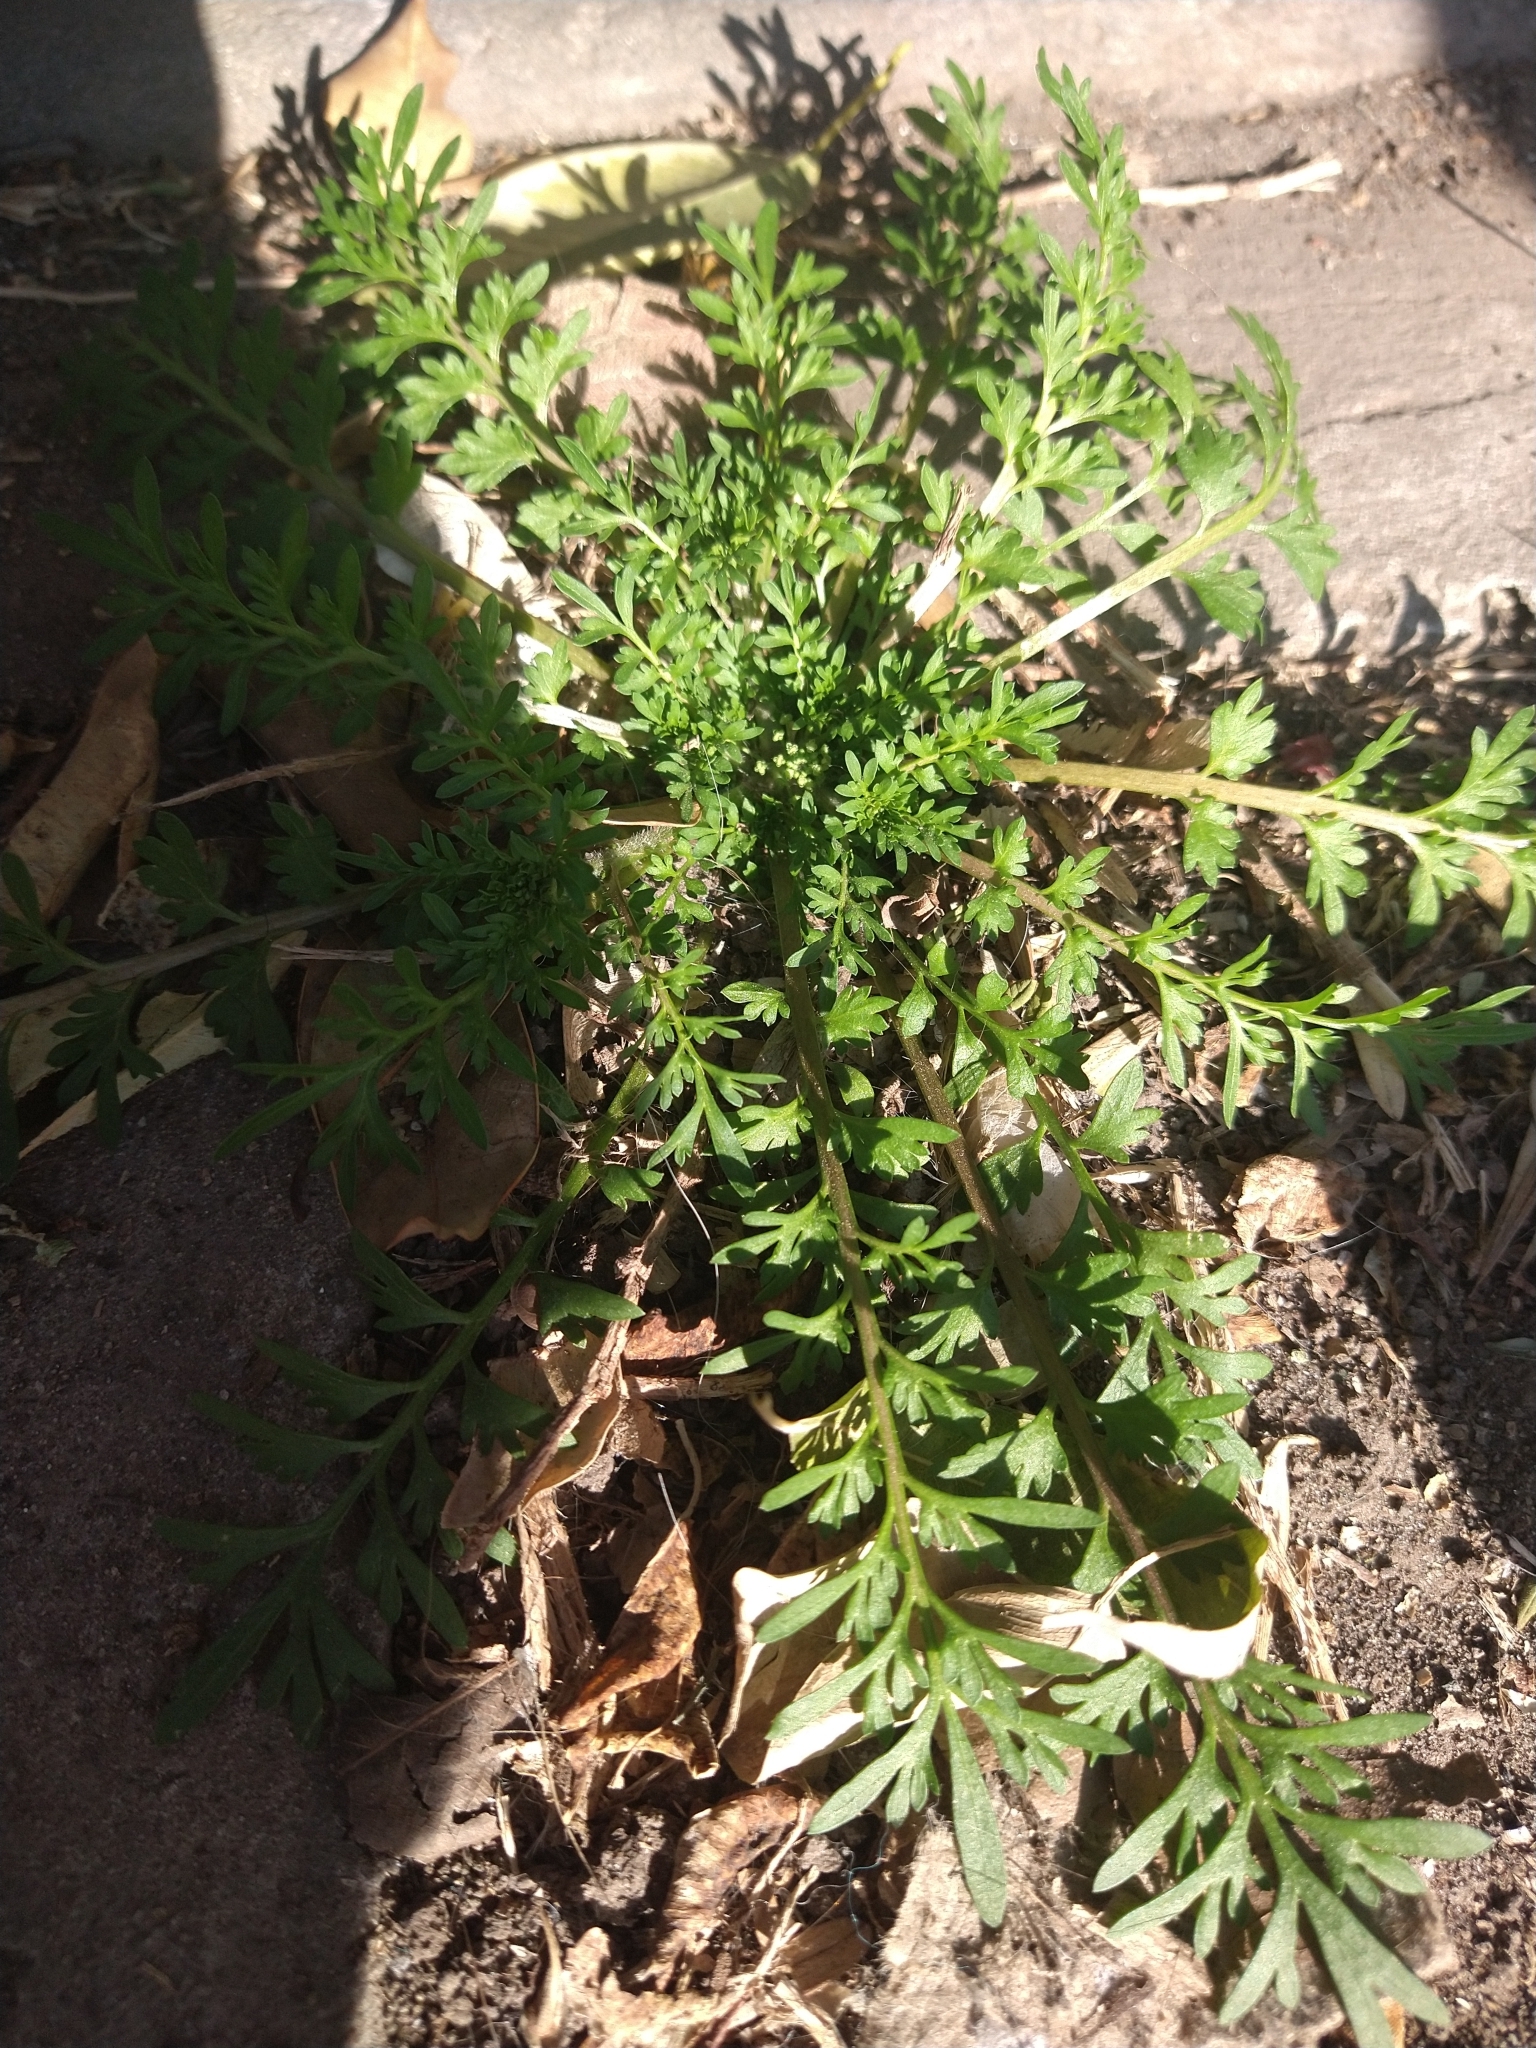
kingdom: Plantae
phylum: Tracheophyta
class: Magnoliopsida
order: Brassicales
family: Brassicaceae
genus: Lepidium
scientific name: Lepidium didymum
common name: Lesser swinecress
